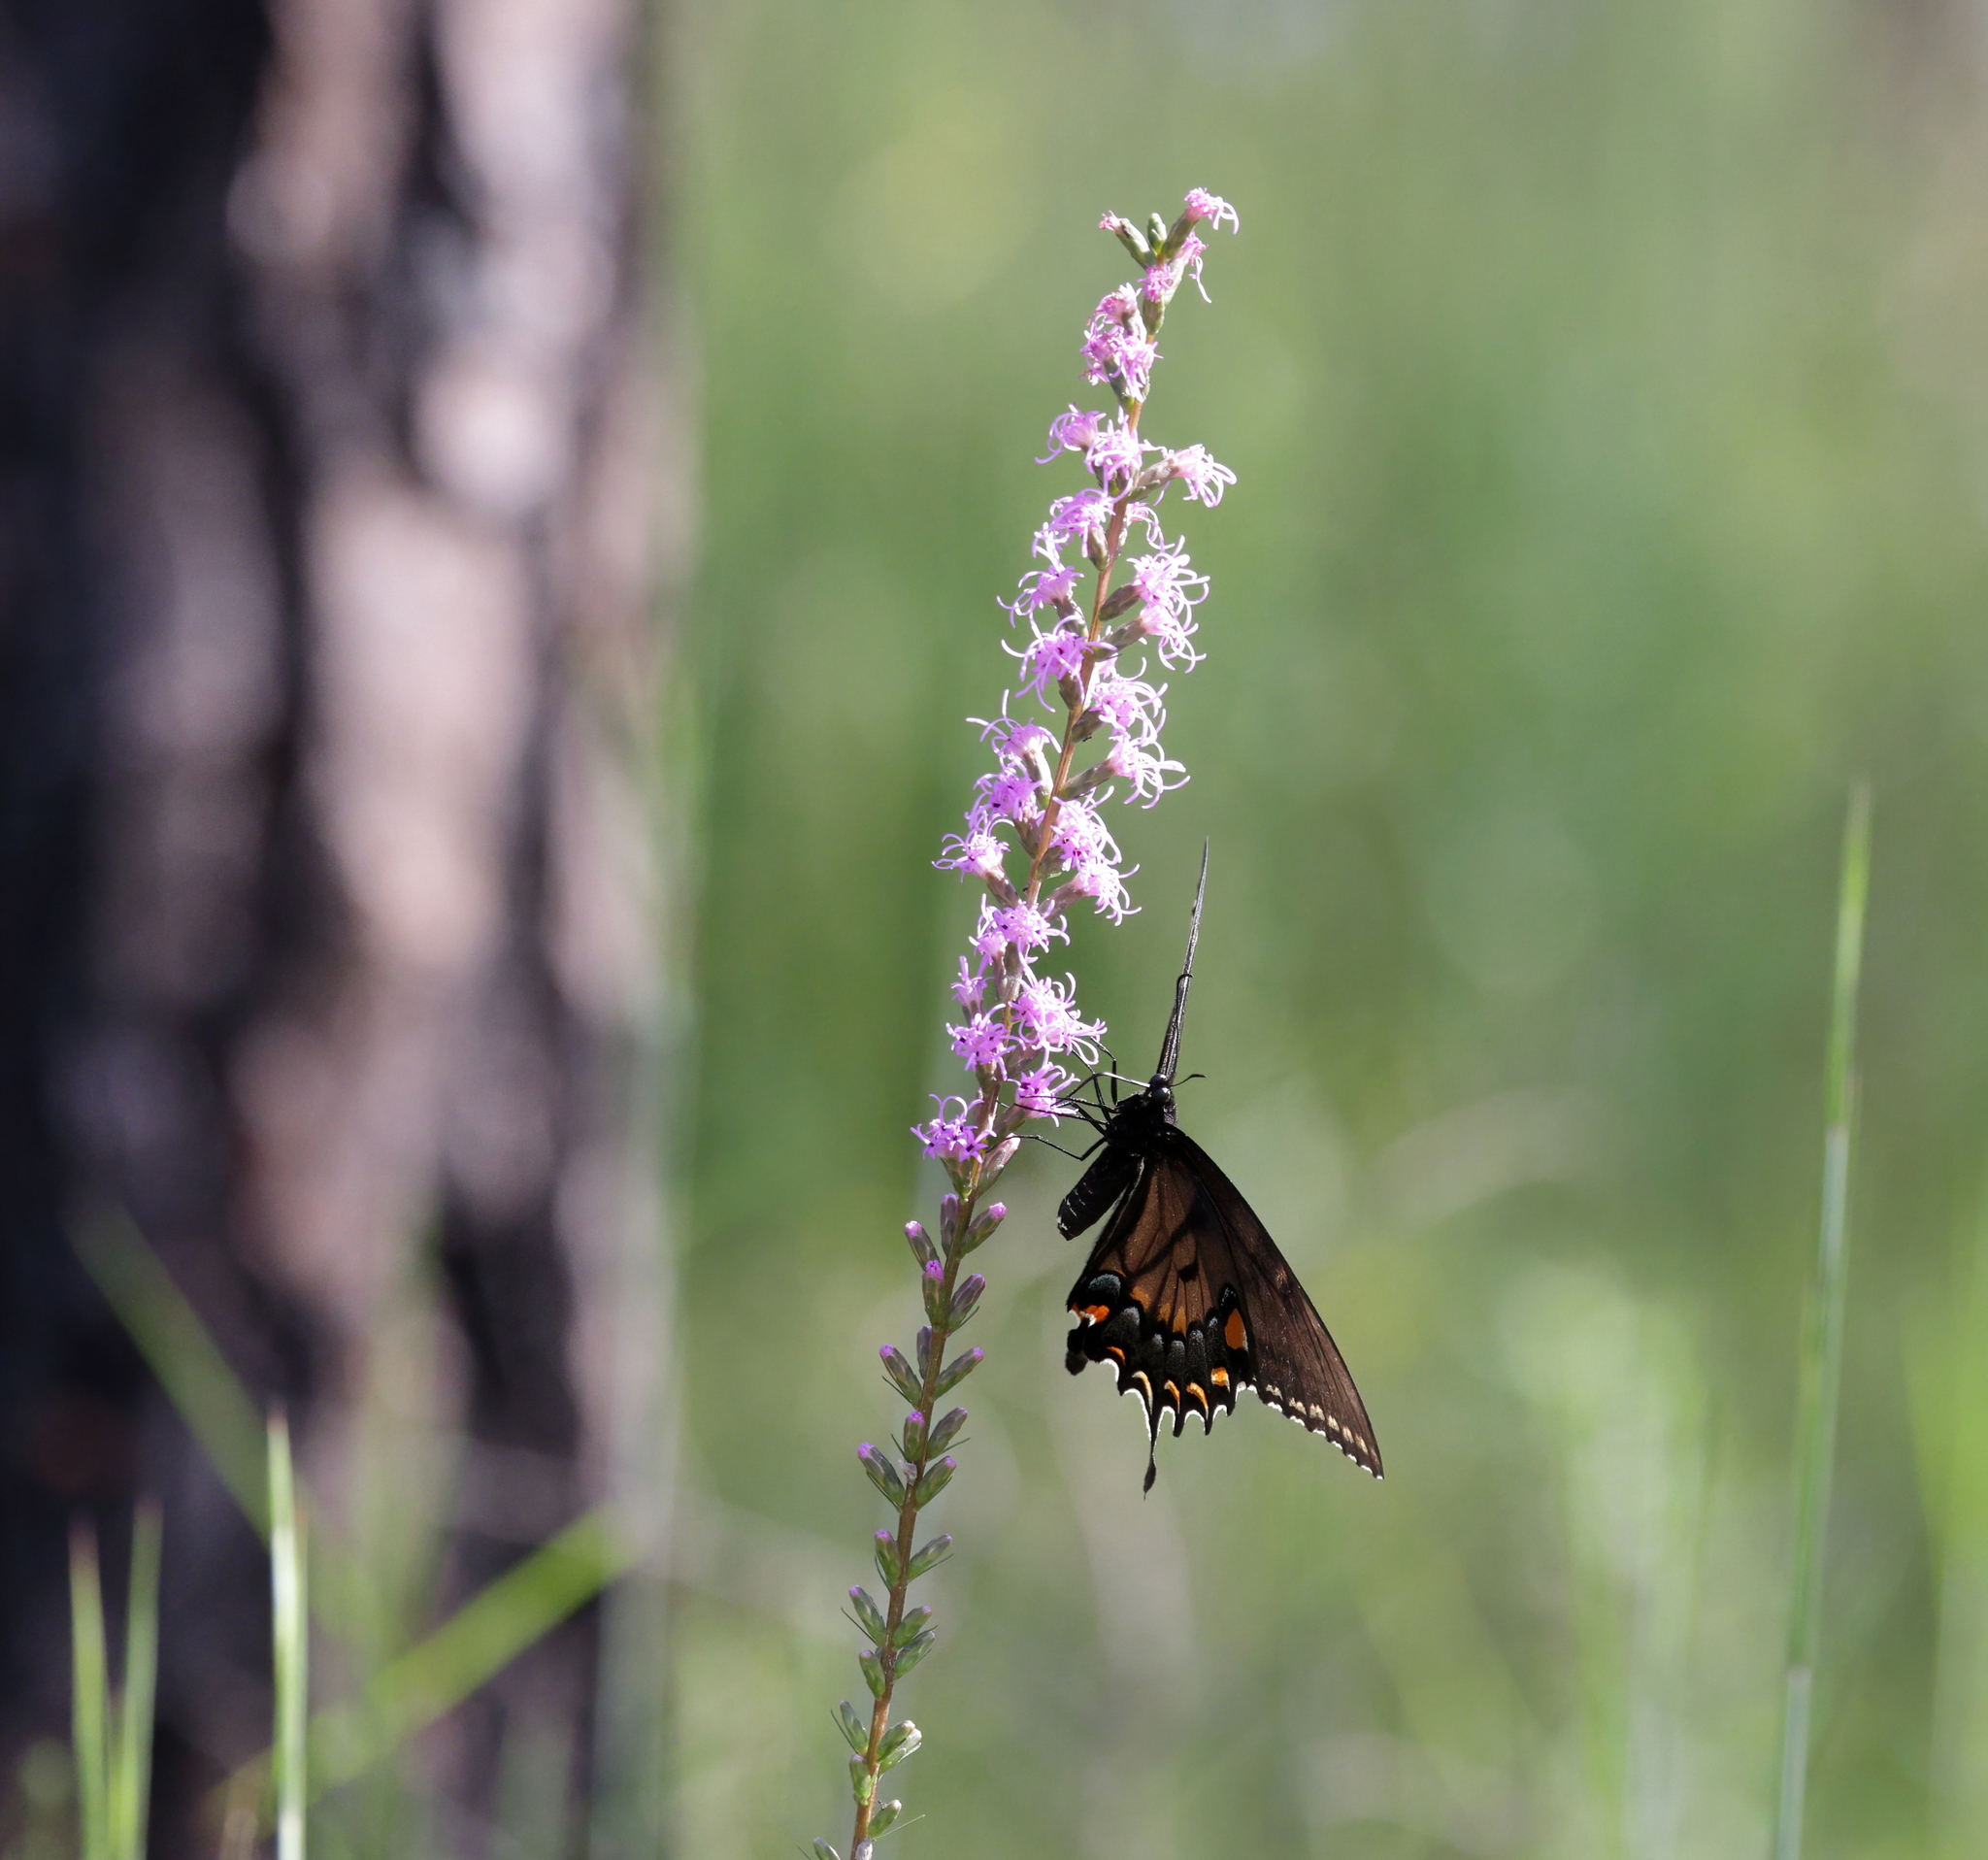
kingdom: Animalia
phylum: Arthropoda
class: Insecta
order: Lepidoptera
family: Papilionidae
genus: Papilio
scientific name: Papilio glaucus
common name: Tiger swallowtail
